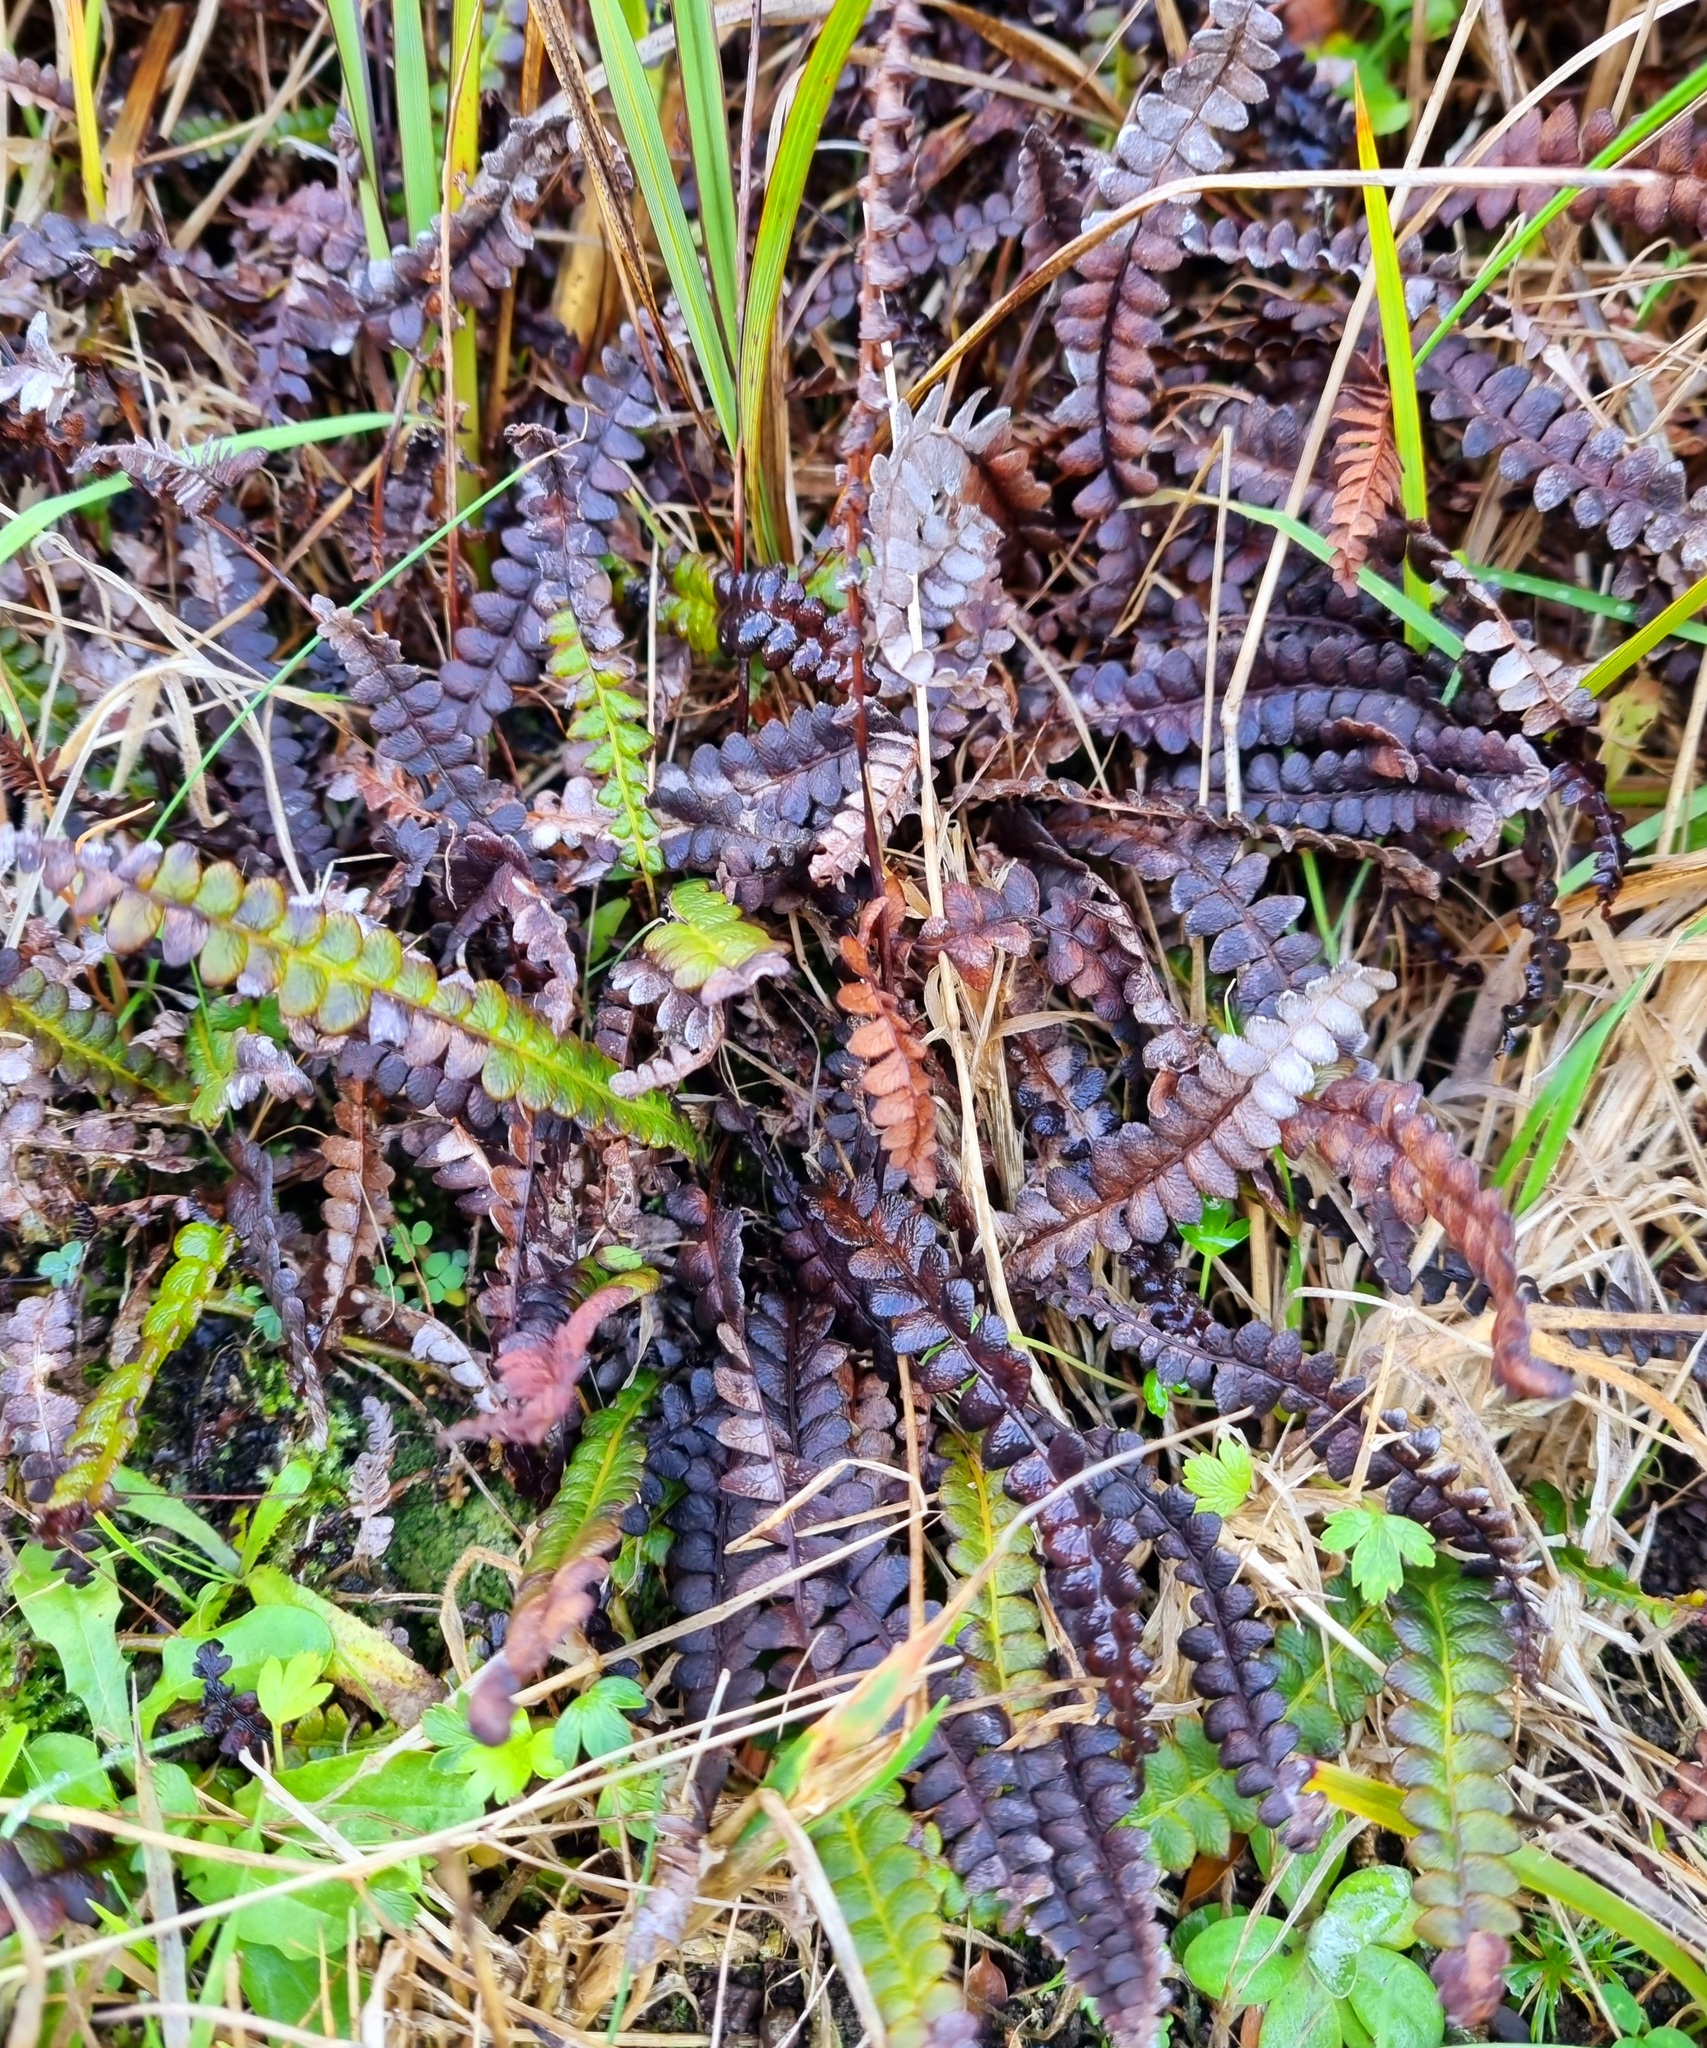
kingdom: Plantae
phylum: Tracheophyta
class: Polypodiopsida
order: Polypodiales
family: Blechnaceae
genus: Austroblechnum
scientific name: Austroblechnum penna-marina
